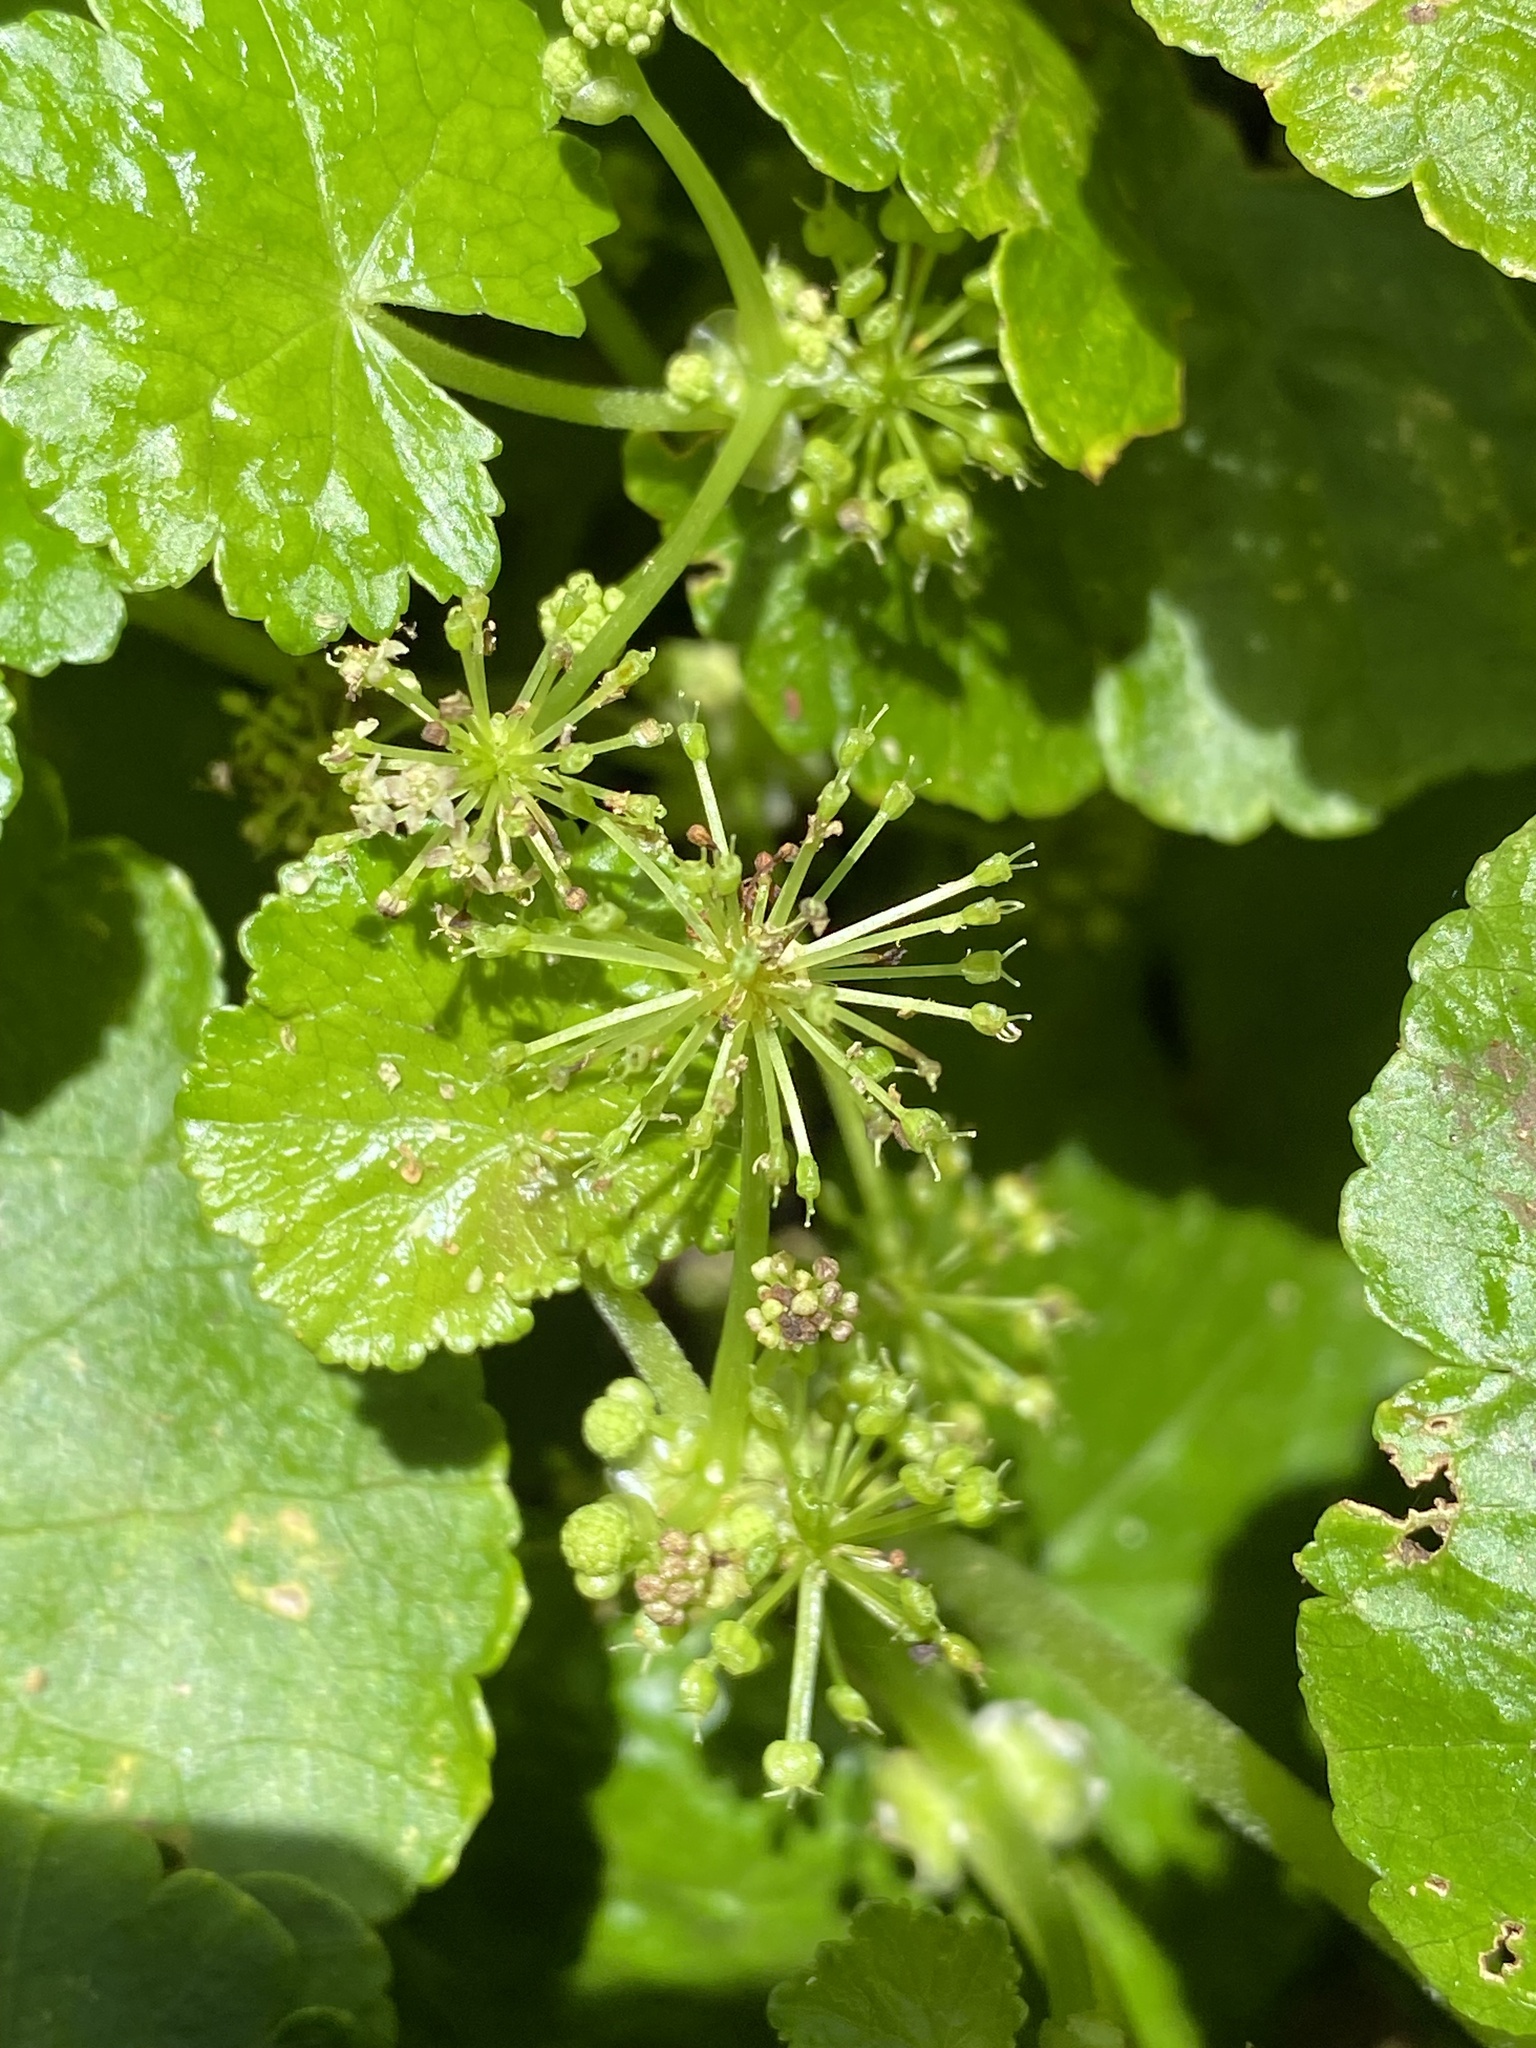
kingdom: Plantae
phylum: Tracheophyta
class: Magnoliopsida
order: Apiales
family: Araliaceae
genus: Hydrocotyle
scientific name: Hydrocotyle pedicellosa
